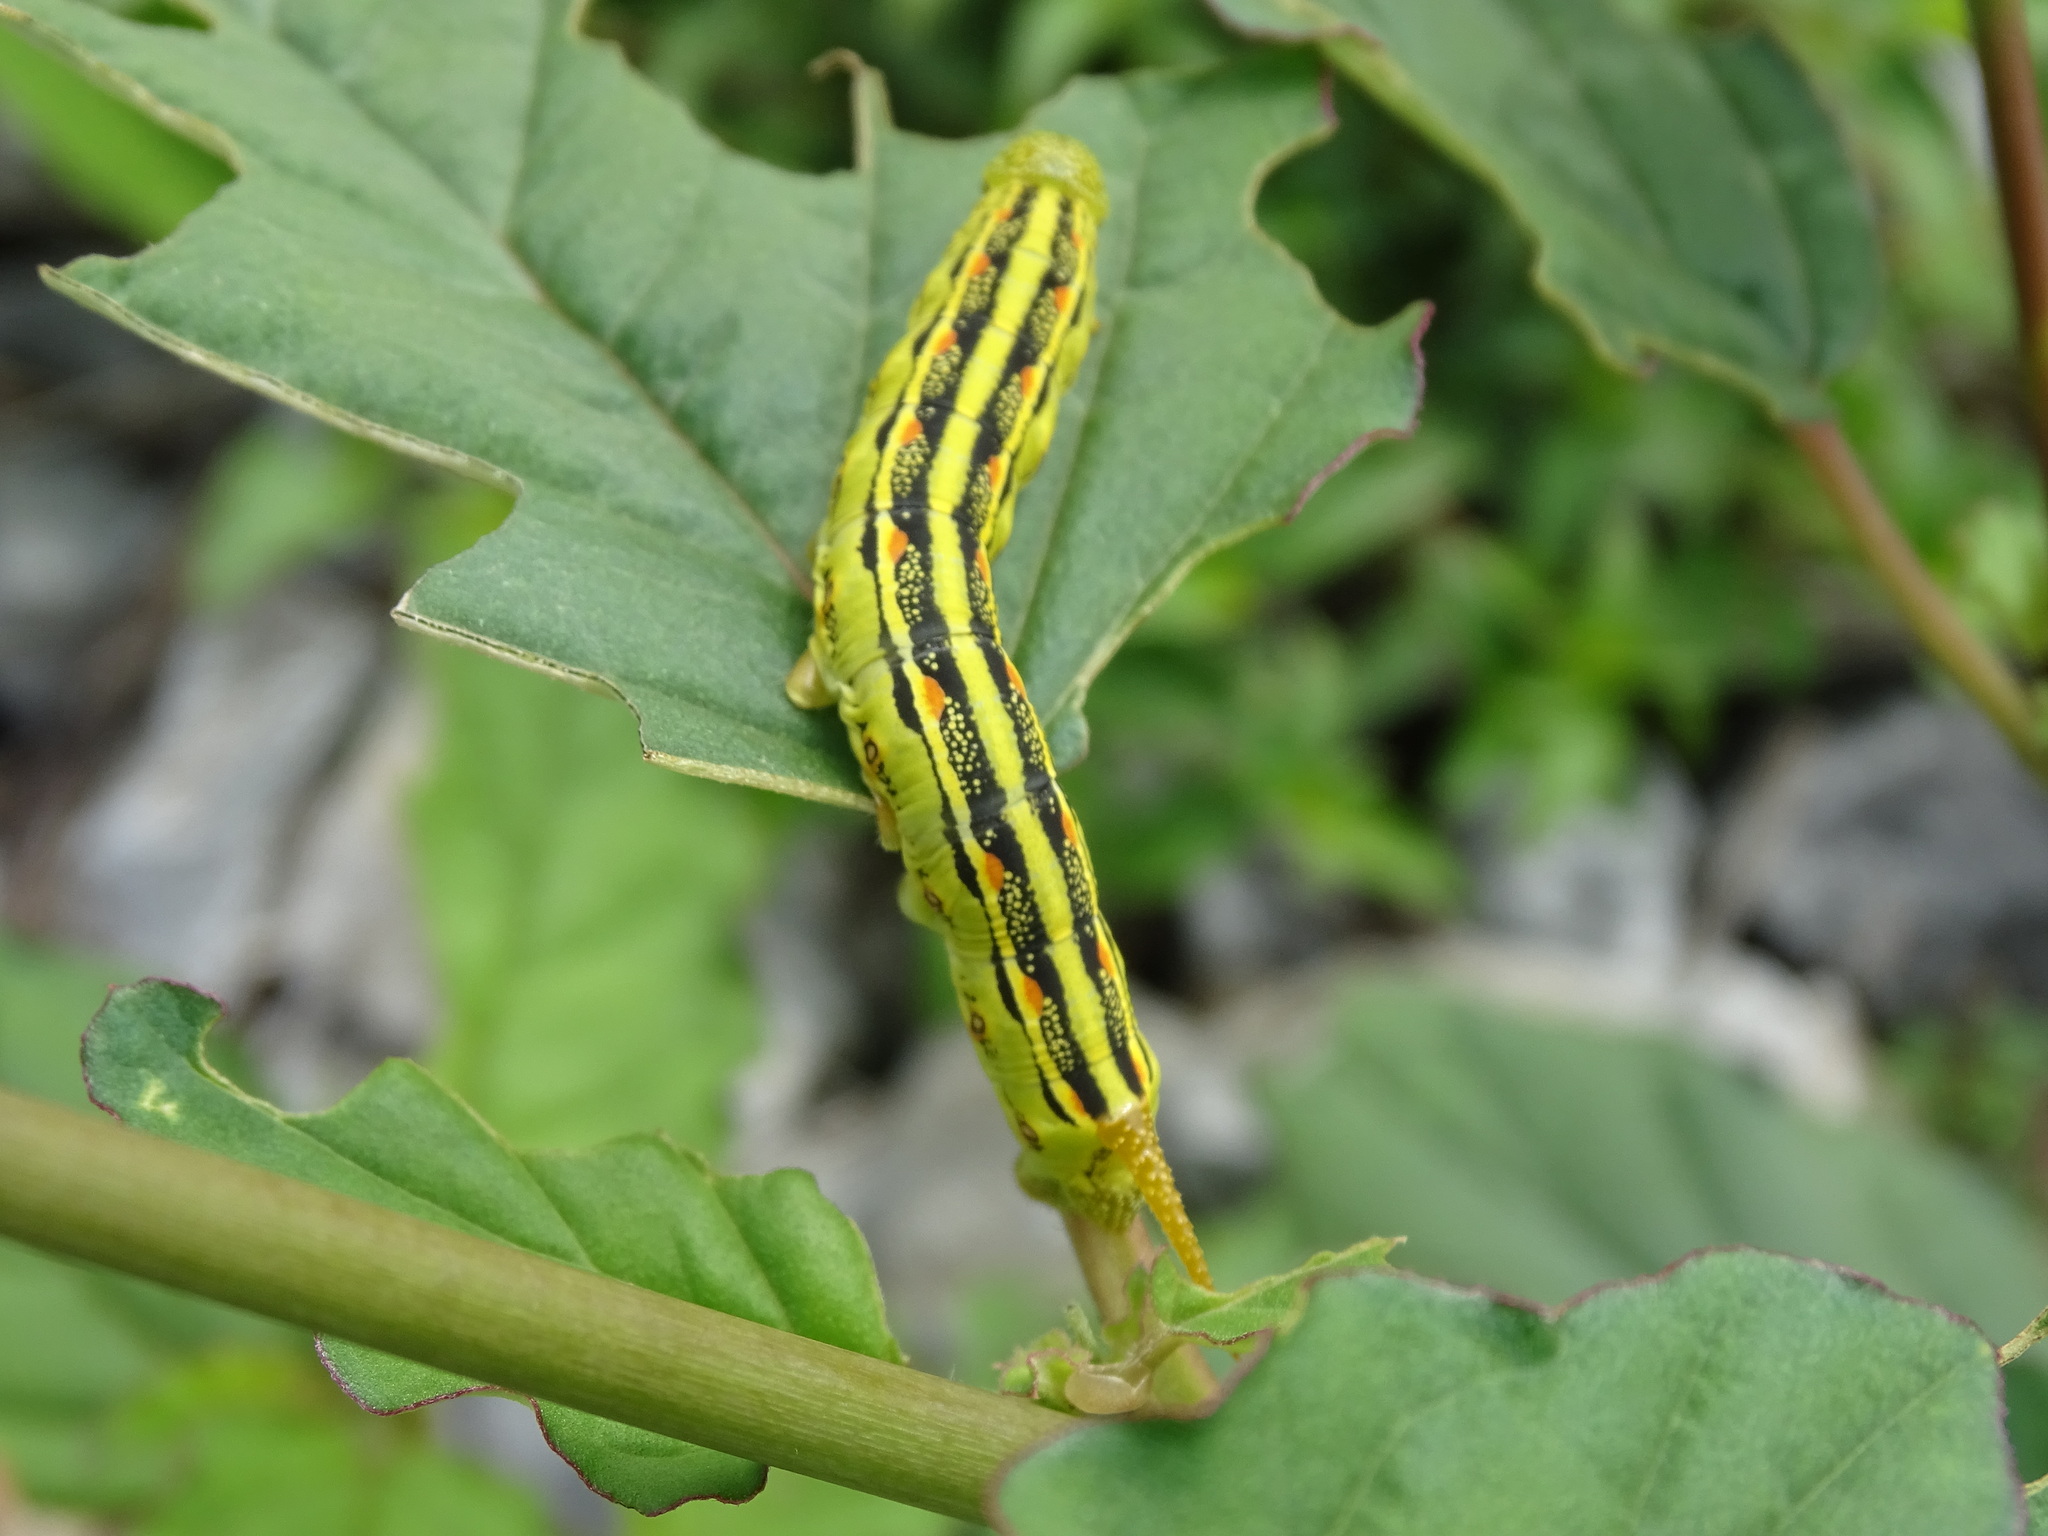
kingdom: Animalia
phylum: Arthropoda
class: Insecta
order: Lepidoptera
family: Sphingidae
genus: Hyles
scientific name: Hyles lineata
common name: White-lined sphinx
